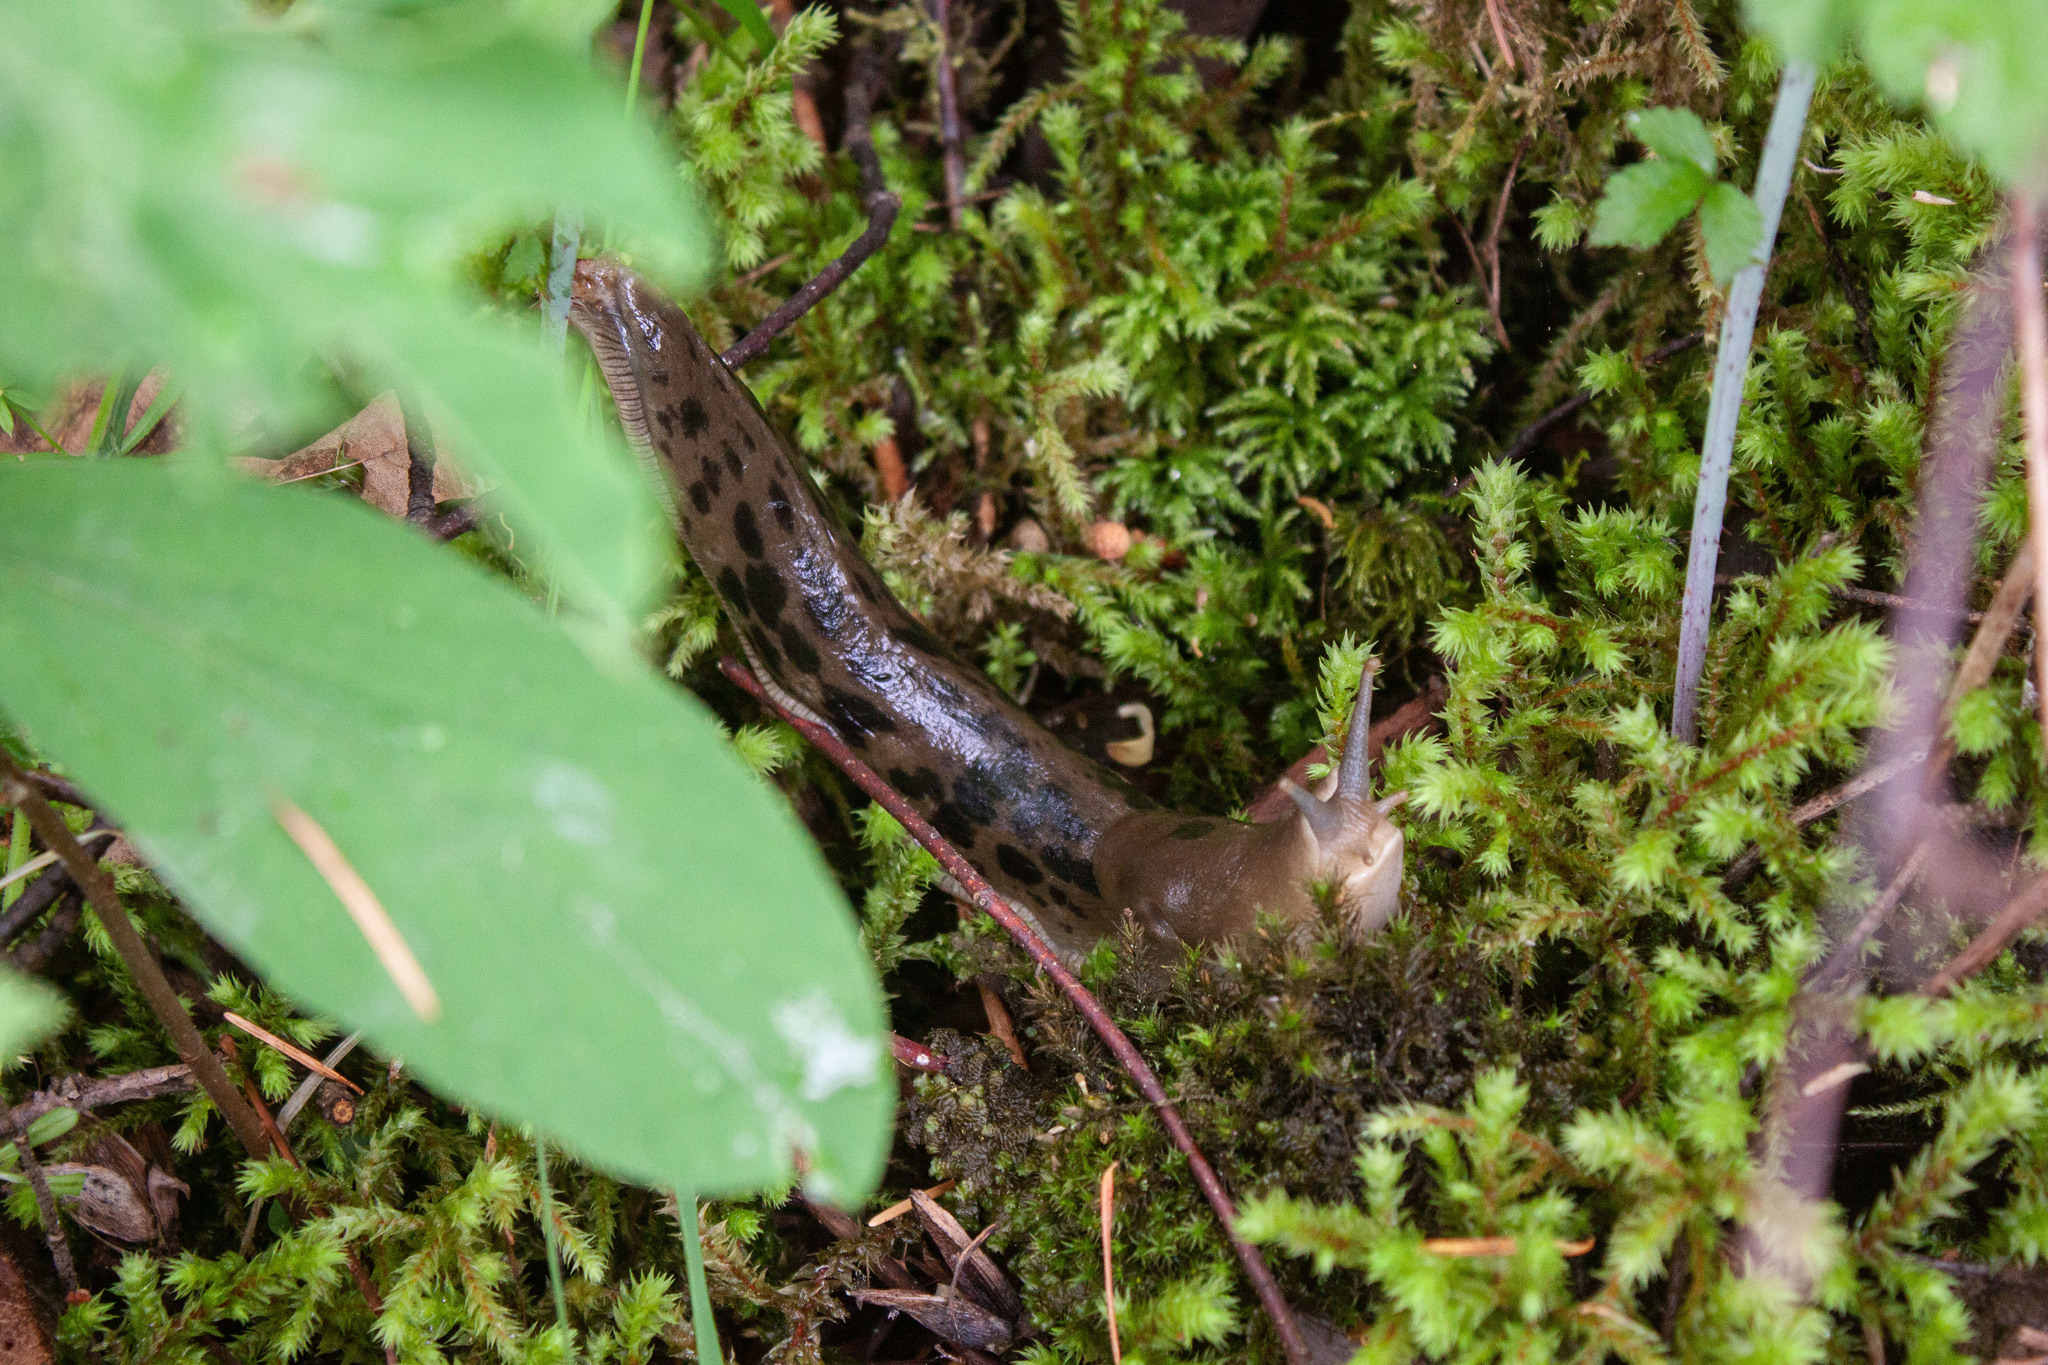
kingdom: Animalia
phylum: Mollusca
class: Gastropoda
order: Stylommatophora
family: Ariolimacidae
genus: Ariolimax
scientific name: Ariolimax columbianus
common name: Pacific banana slug
